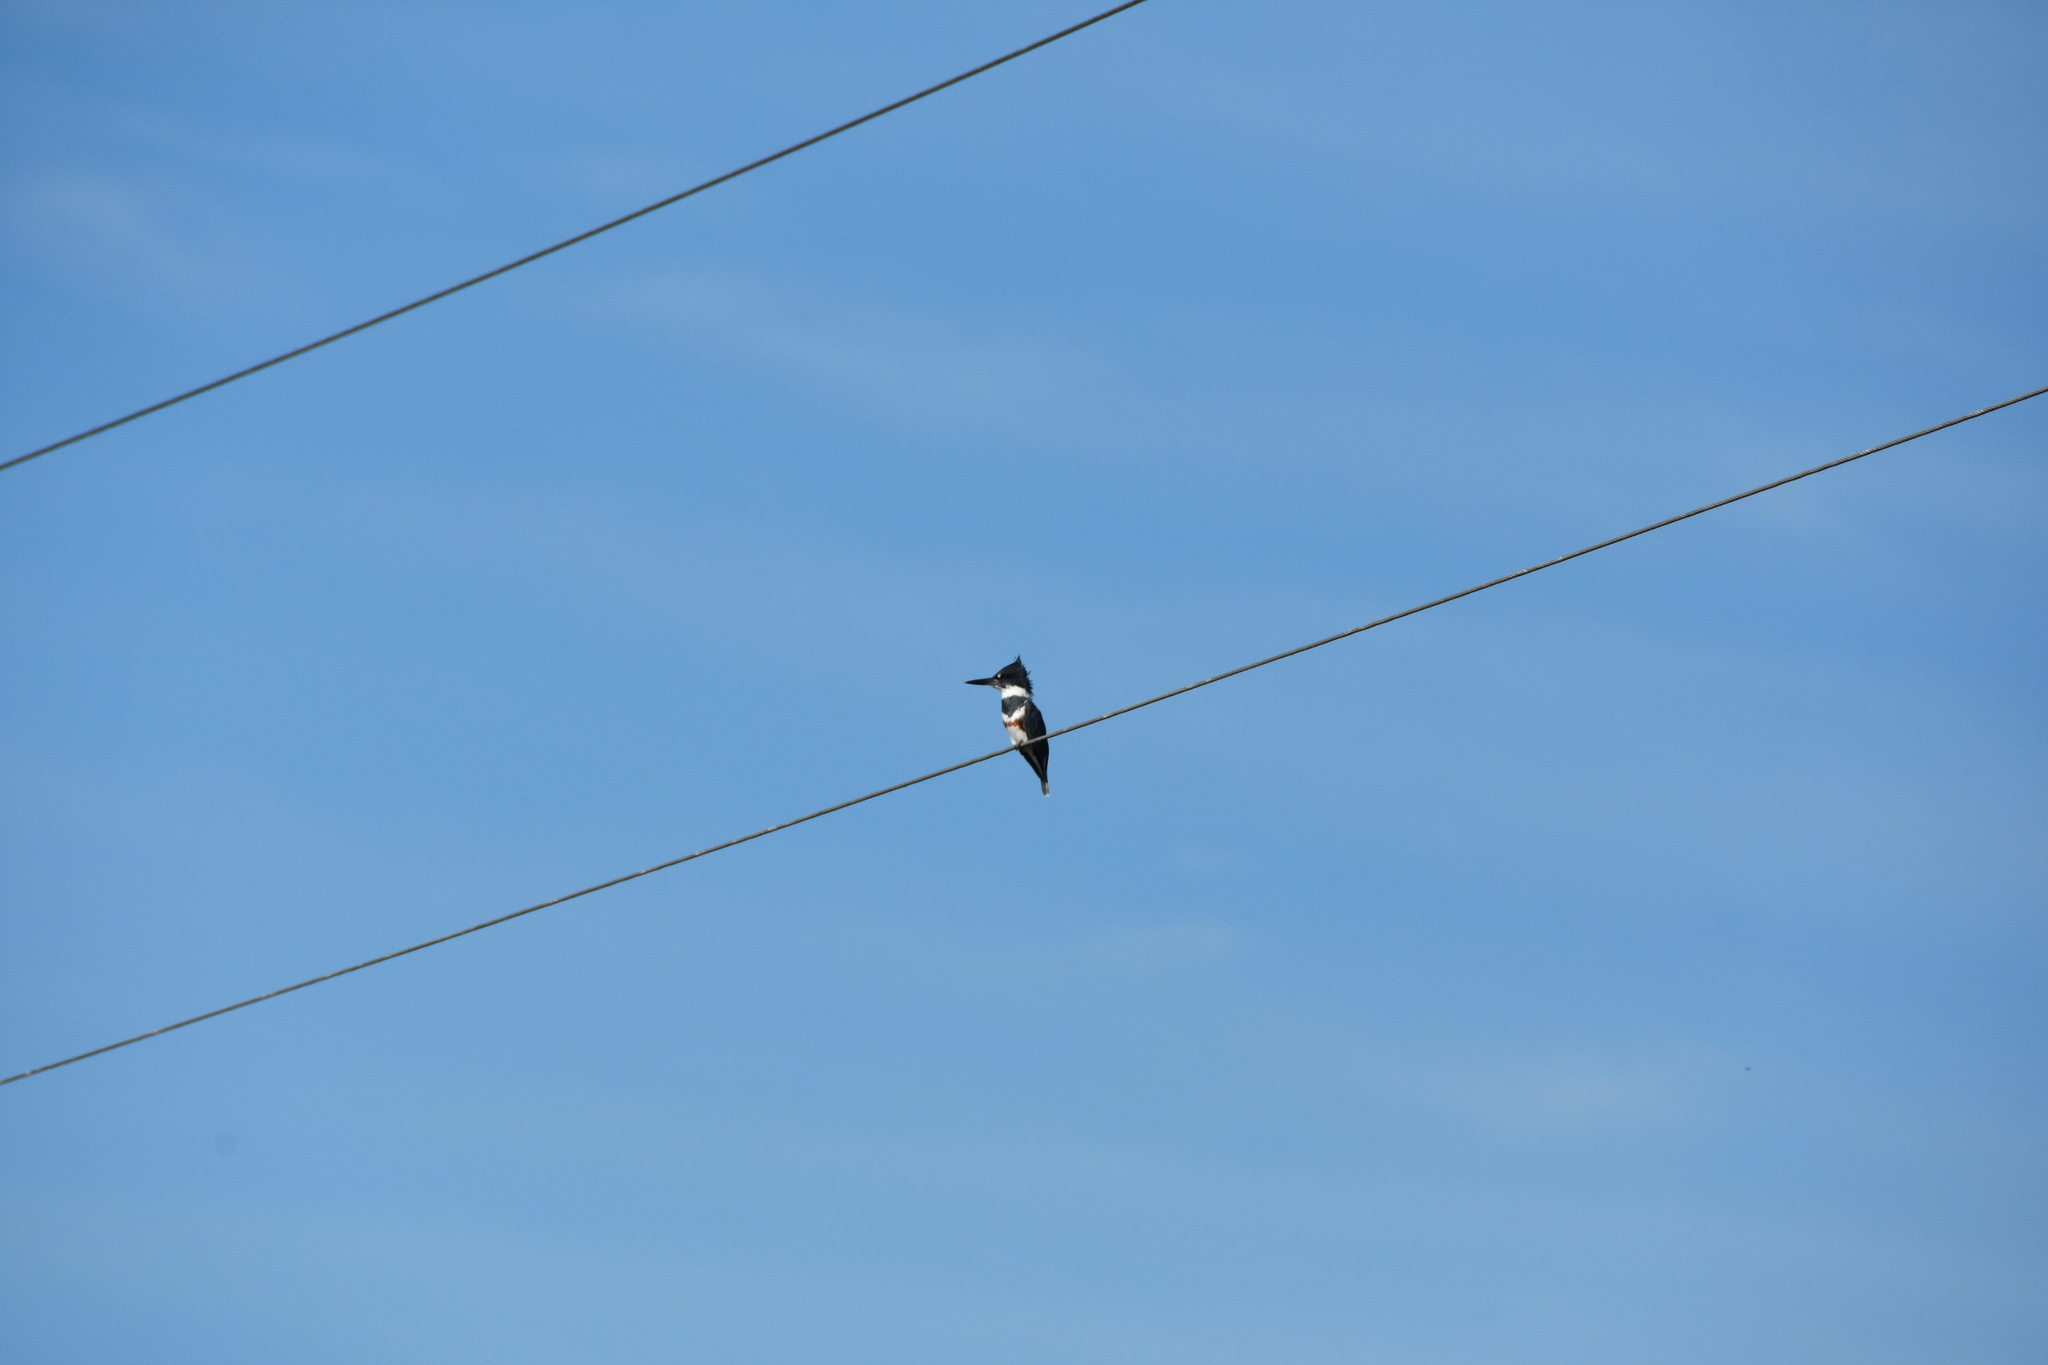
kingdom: Animalia
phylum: Chordata
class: Aves
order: Coraciiformes
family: Alcedinidae
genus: Megaceryle
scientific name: Megaceryle alcyon
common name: Belted kingfisher
